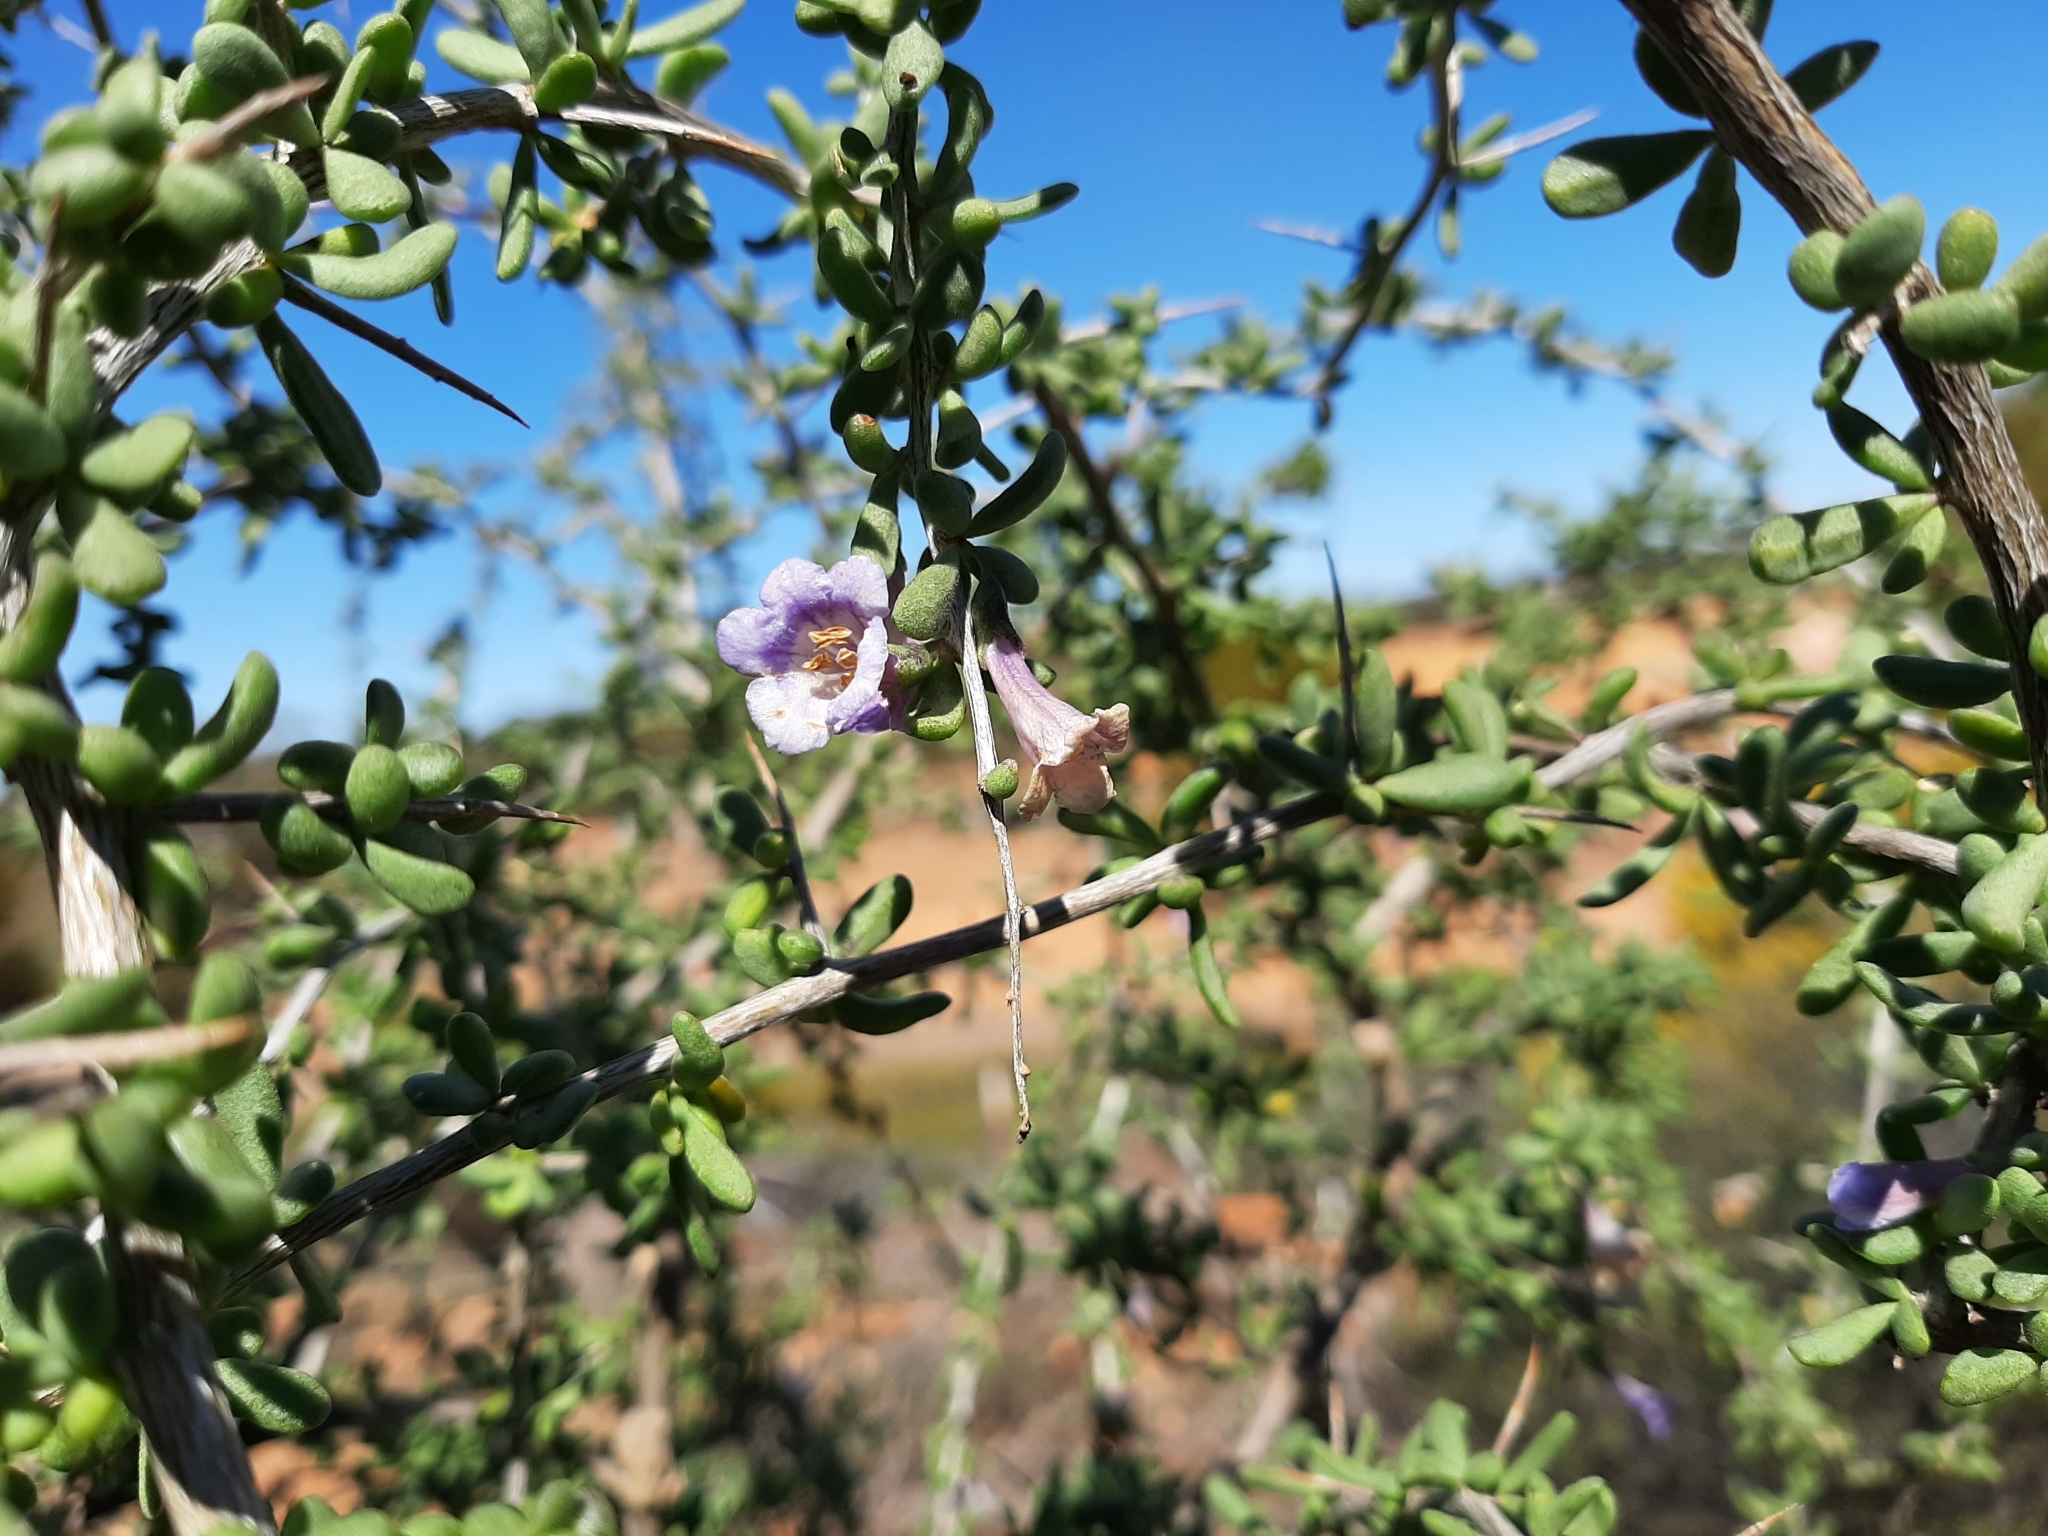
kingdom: Plantae
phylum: Tracheophyta
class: Magnoliopsida
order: Solanales
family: Solanaceae
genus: Lycium
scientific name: Lycium australe
